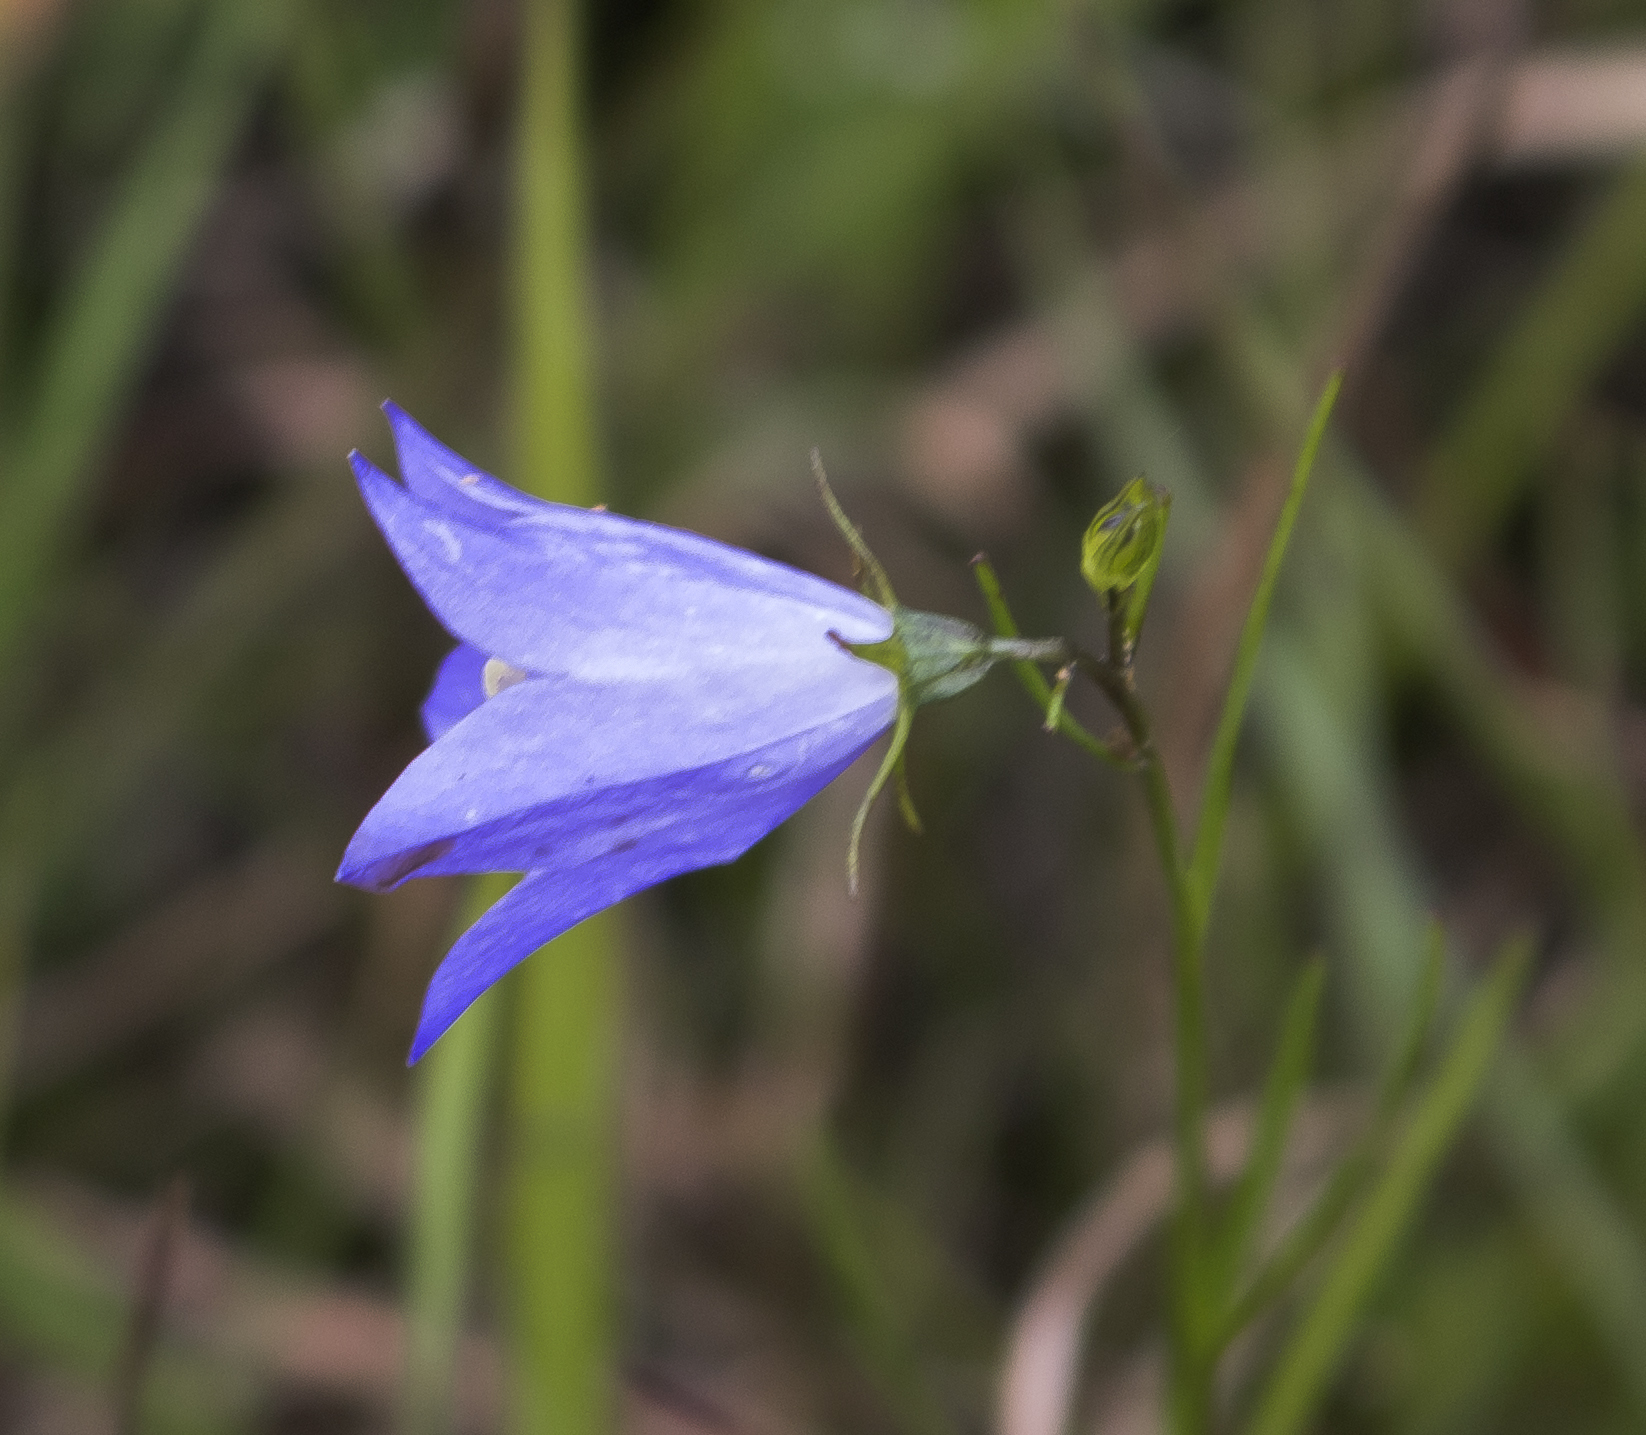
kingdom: Plantae
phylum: Tracheophyta
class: Magnoliopsida
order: Asterales
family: Campanulaceae
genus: Campanula
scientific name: Campanula intercedens
